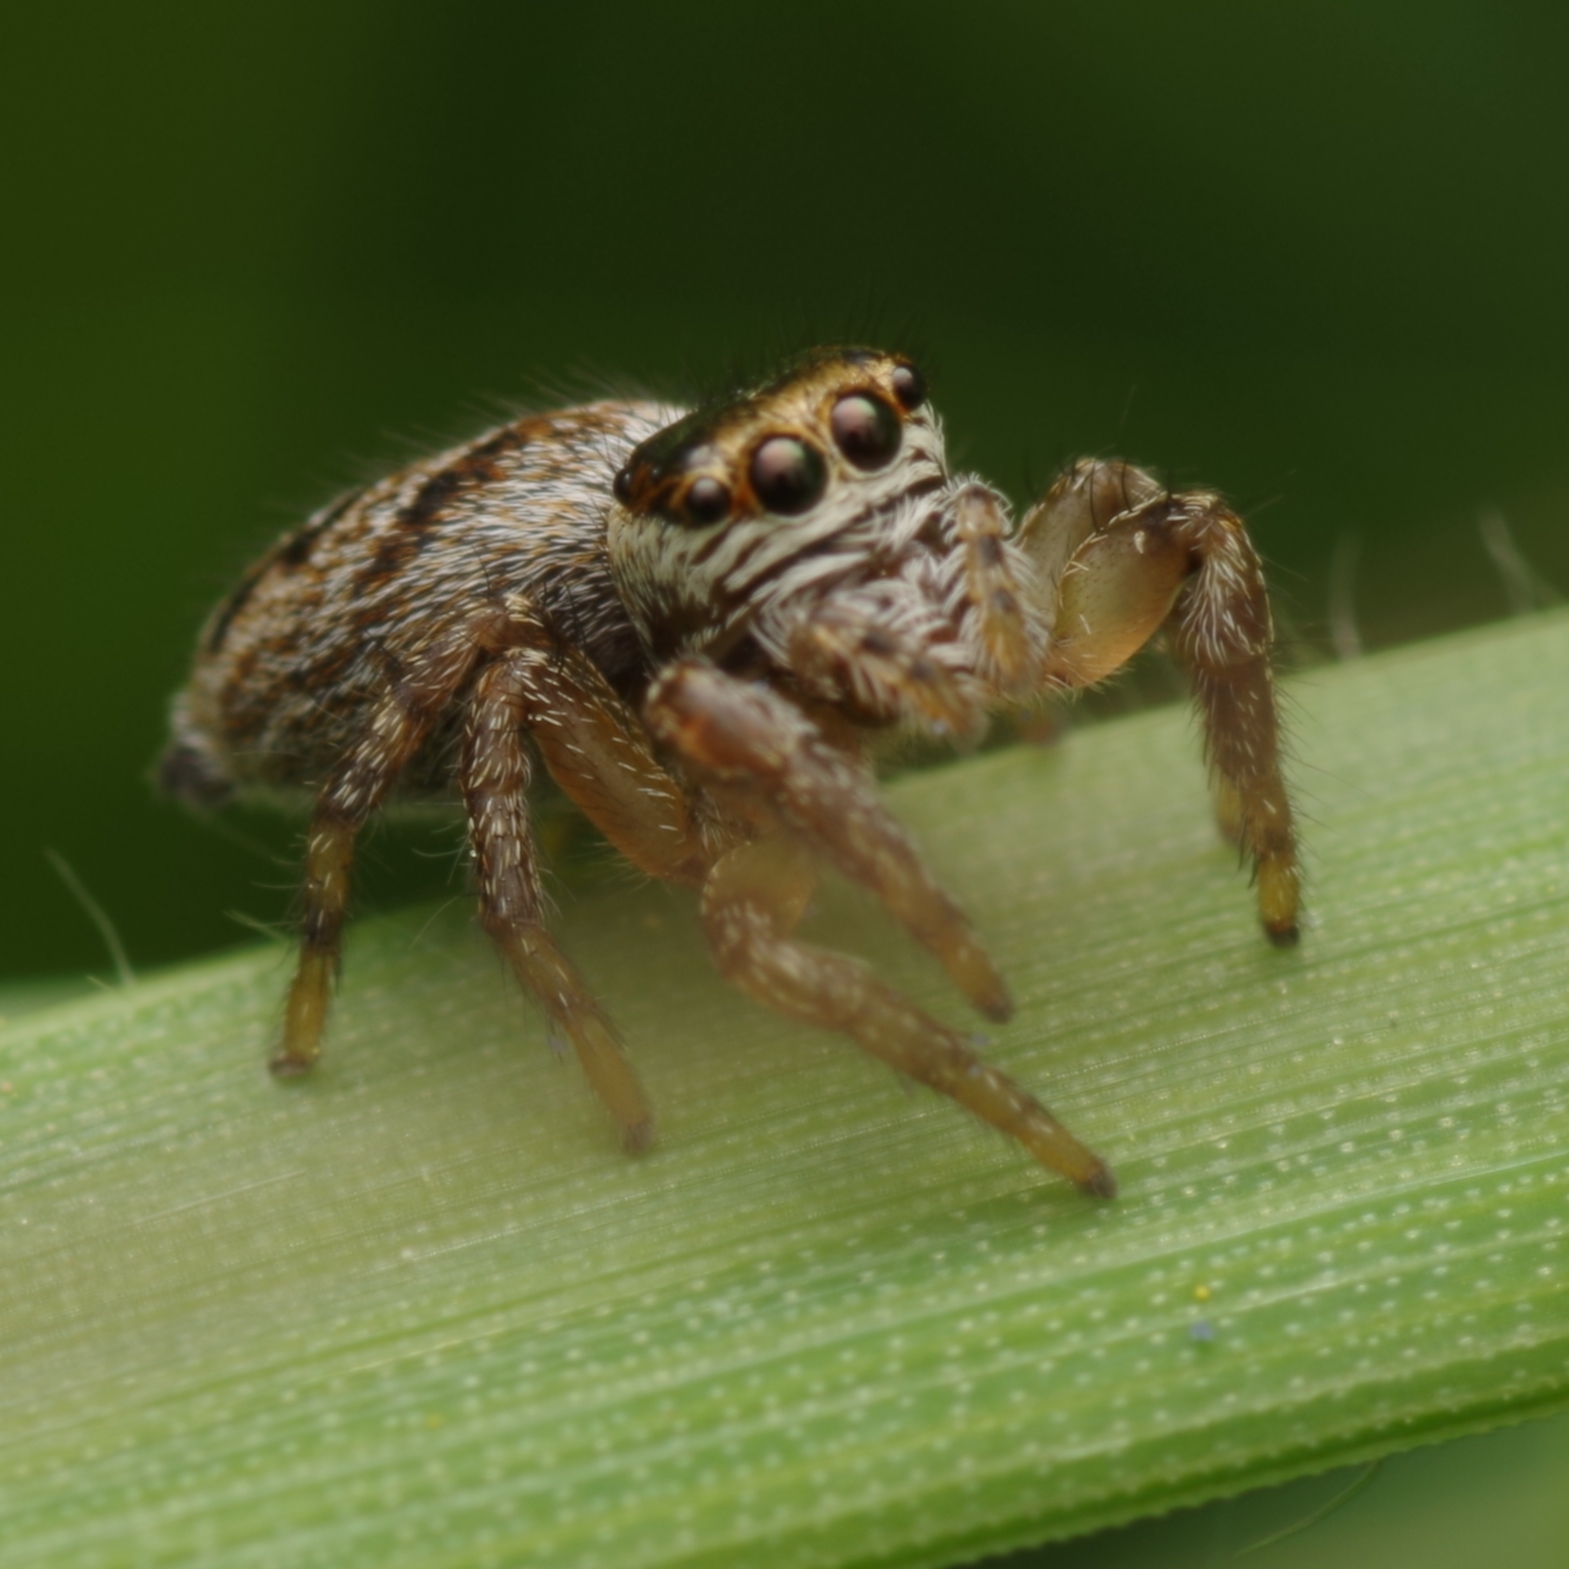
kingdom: Animalia
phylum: Arthropoda
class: Arachnida
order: Araneae
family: Salticidae
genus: Evarcha
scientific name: Evarcha arcuata
